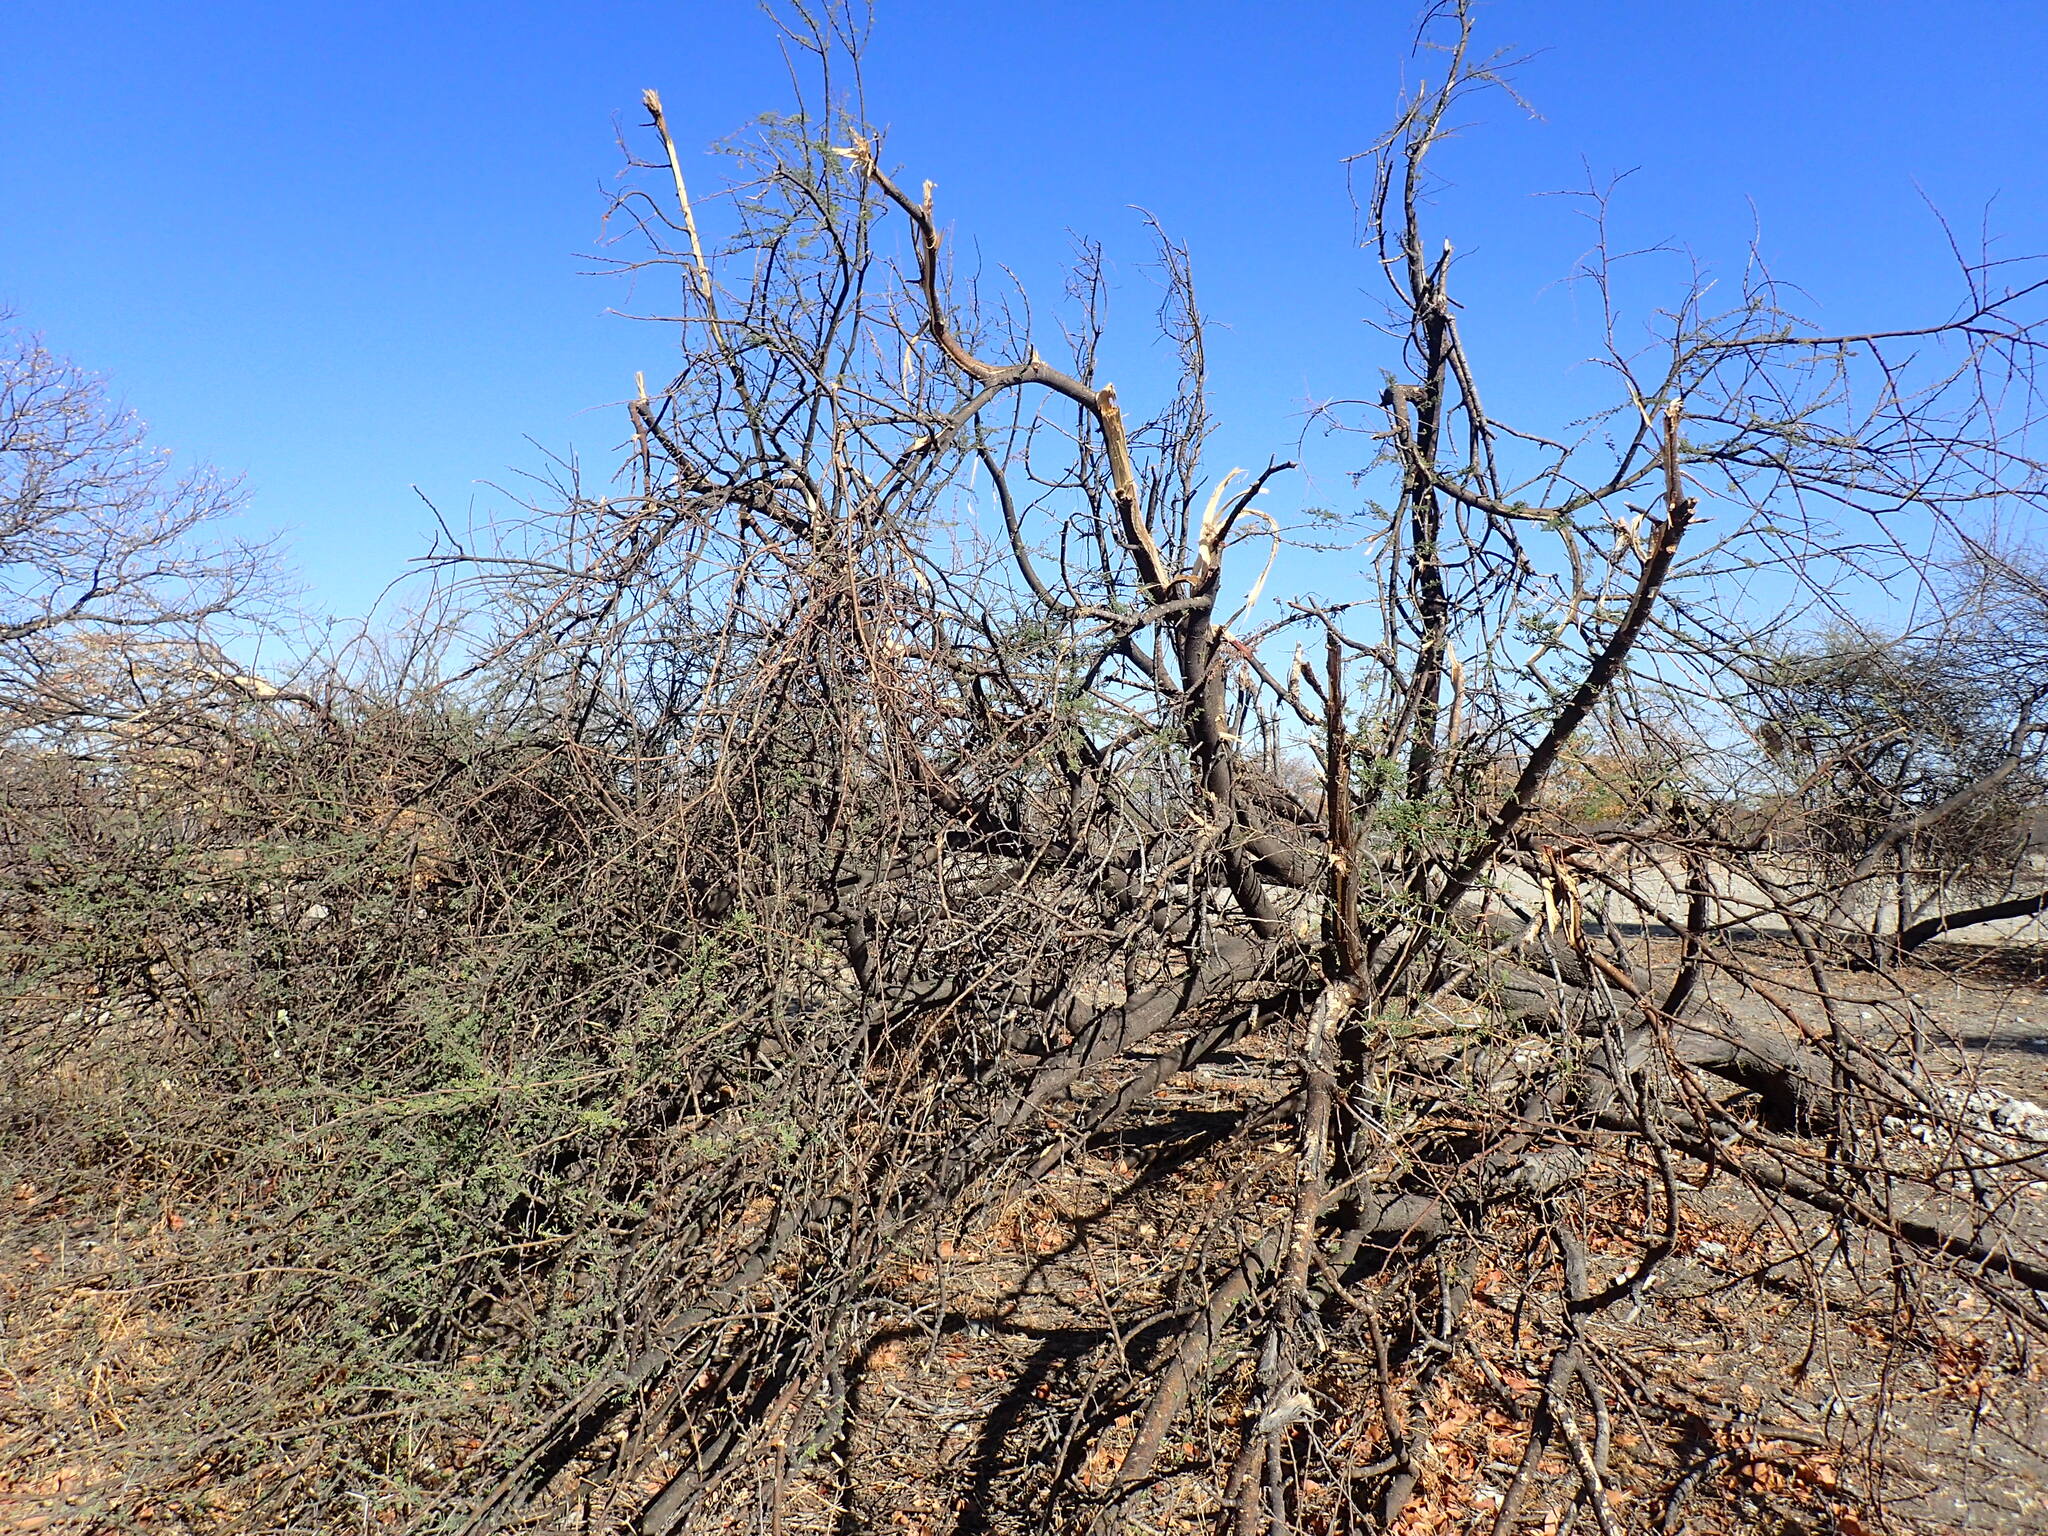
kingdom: Plantae
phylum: Tracheophyta
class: Magnoliopsida
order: Fabales
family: Fabaceae
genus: Vachellia
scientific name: Vachellia tortilis
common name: Umbrella thorn acacia
